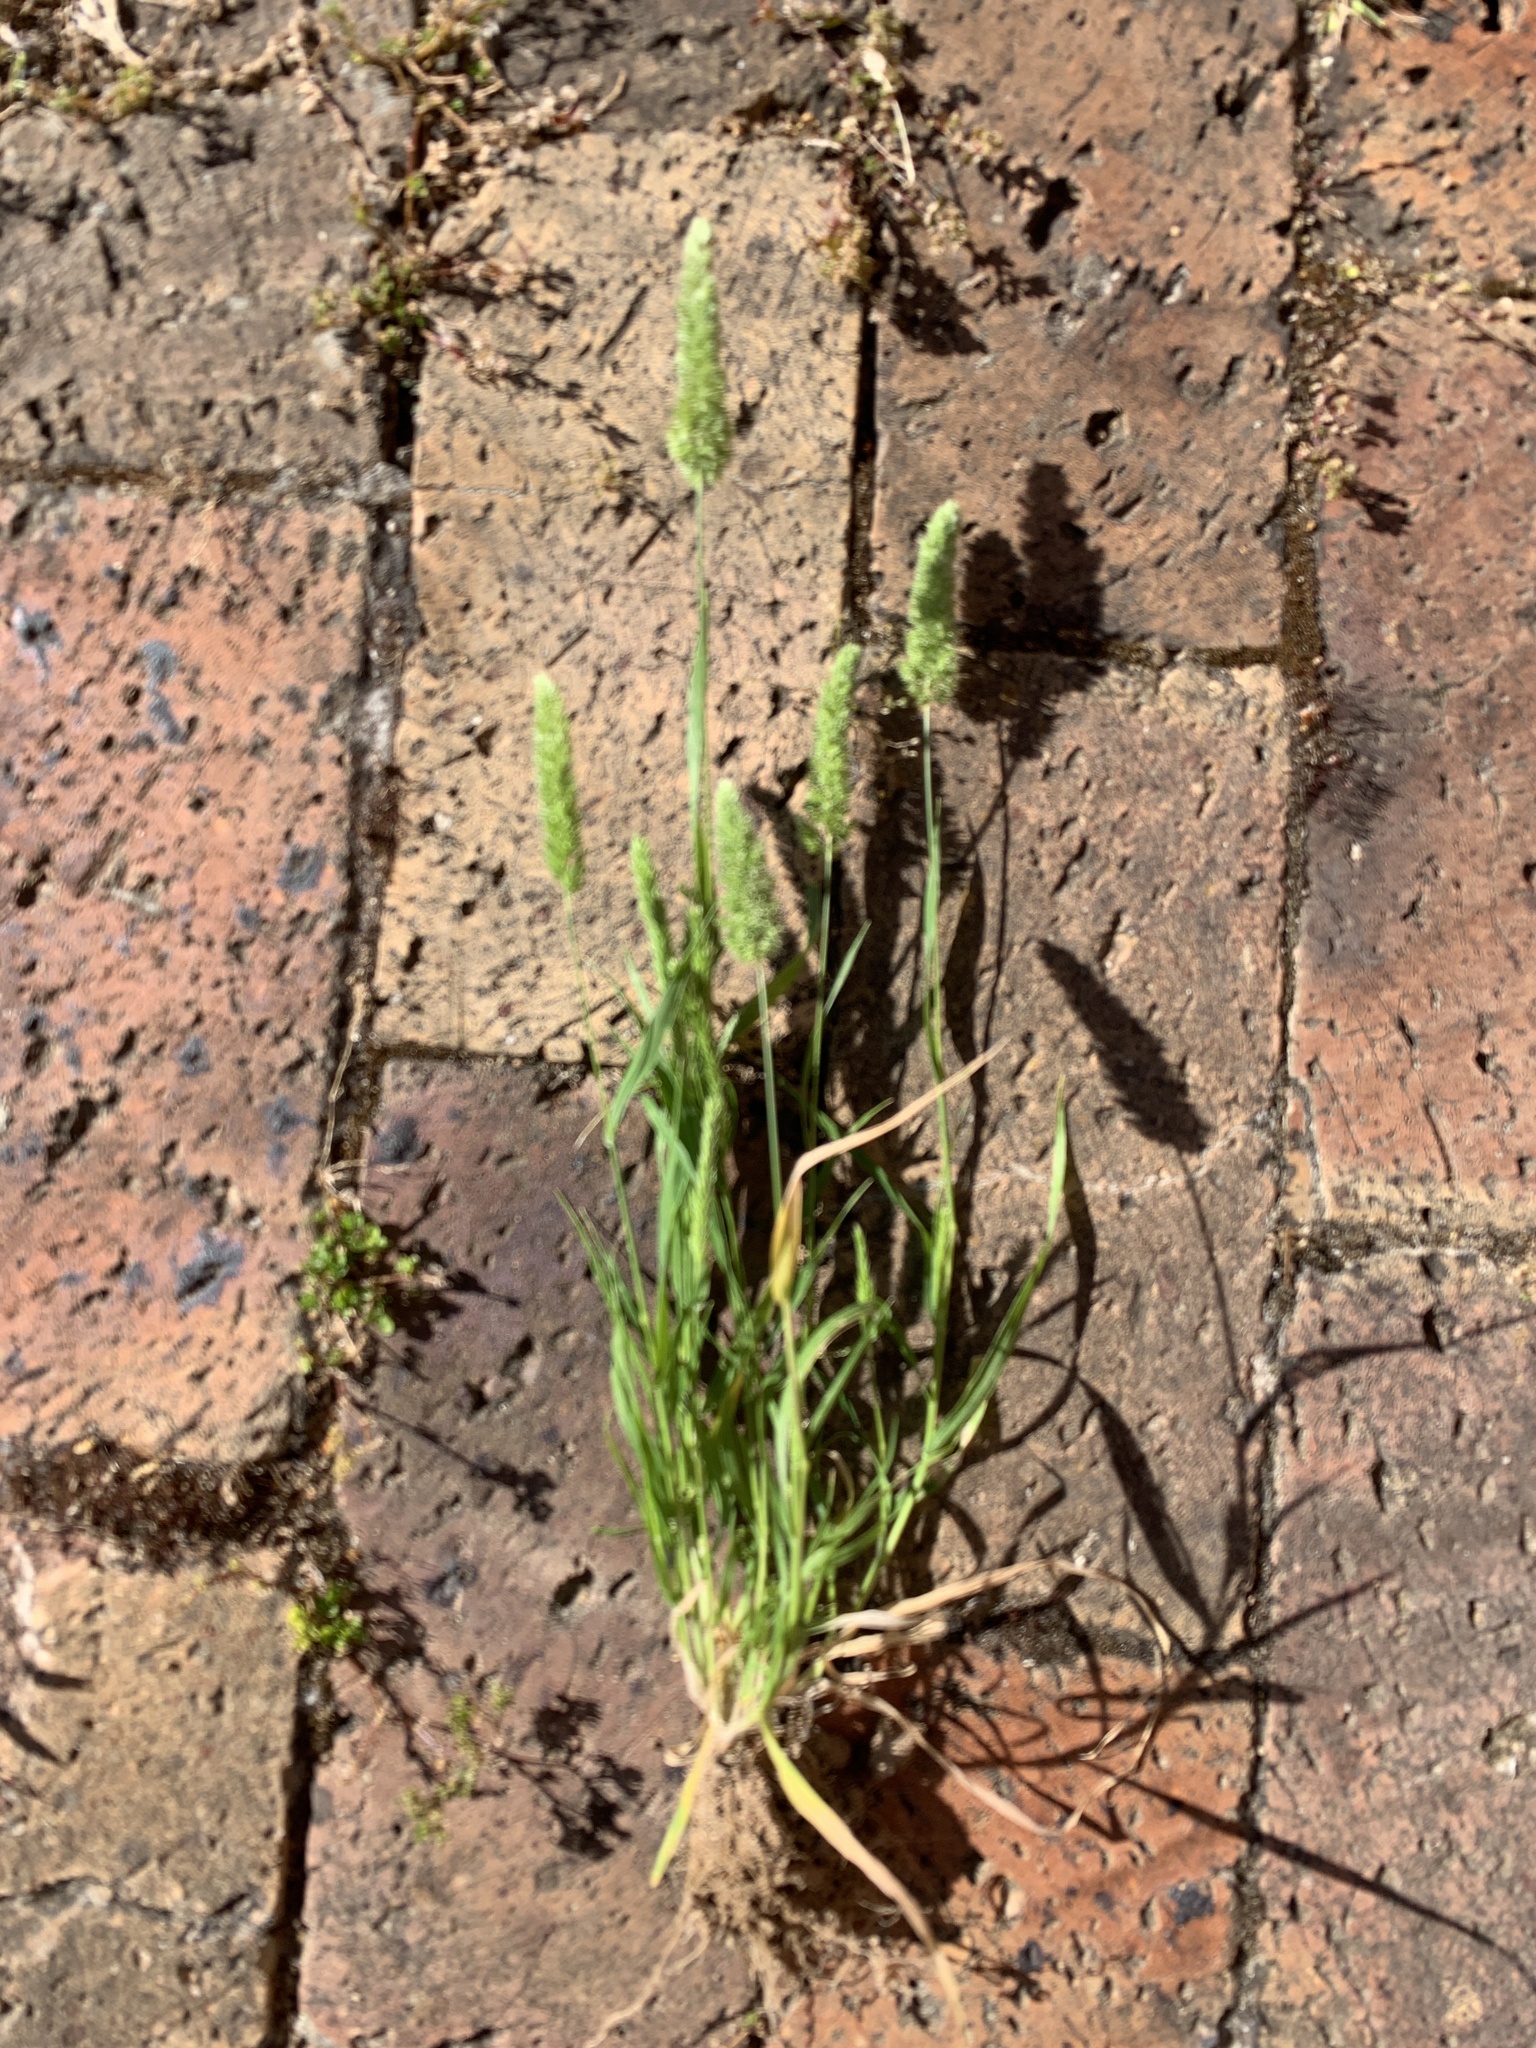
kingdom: Plantae
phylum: Tracheophyta
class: Liliopsida
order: Poales
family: Poaceae
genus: Rostraria
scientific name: Rostraria cristata
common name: Mediterranean hair-grass
